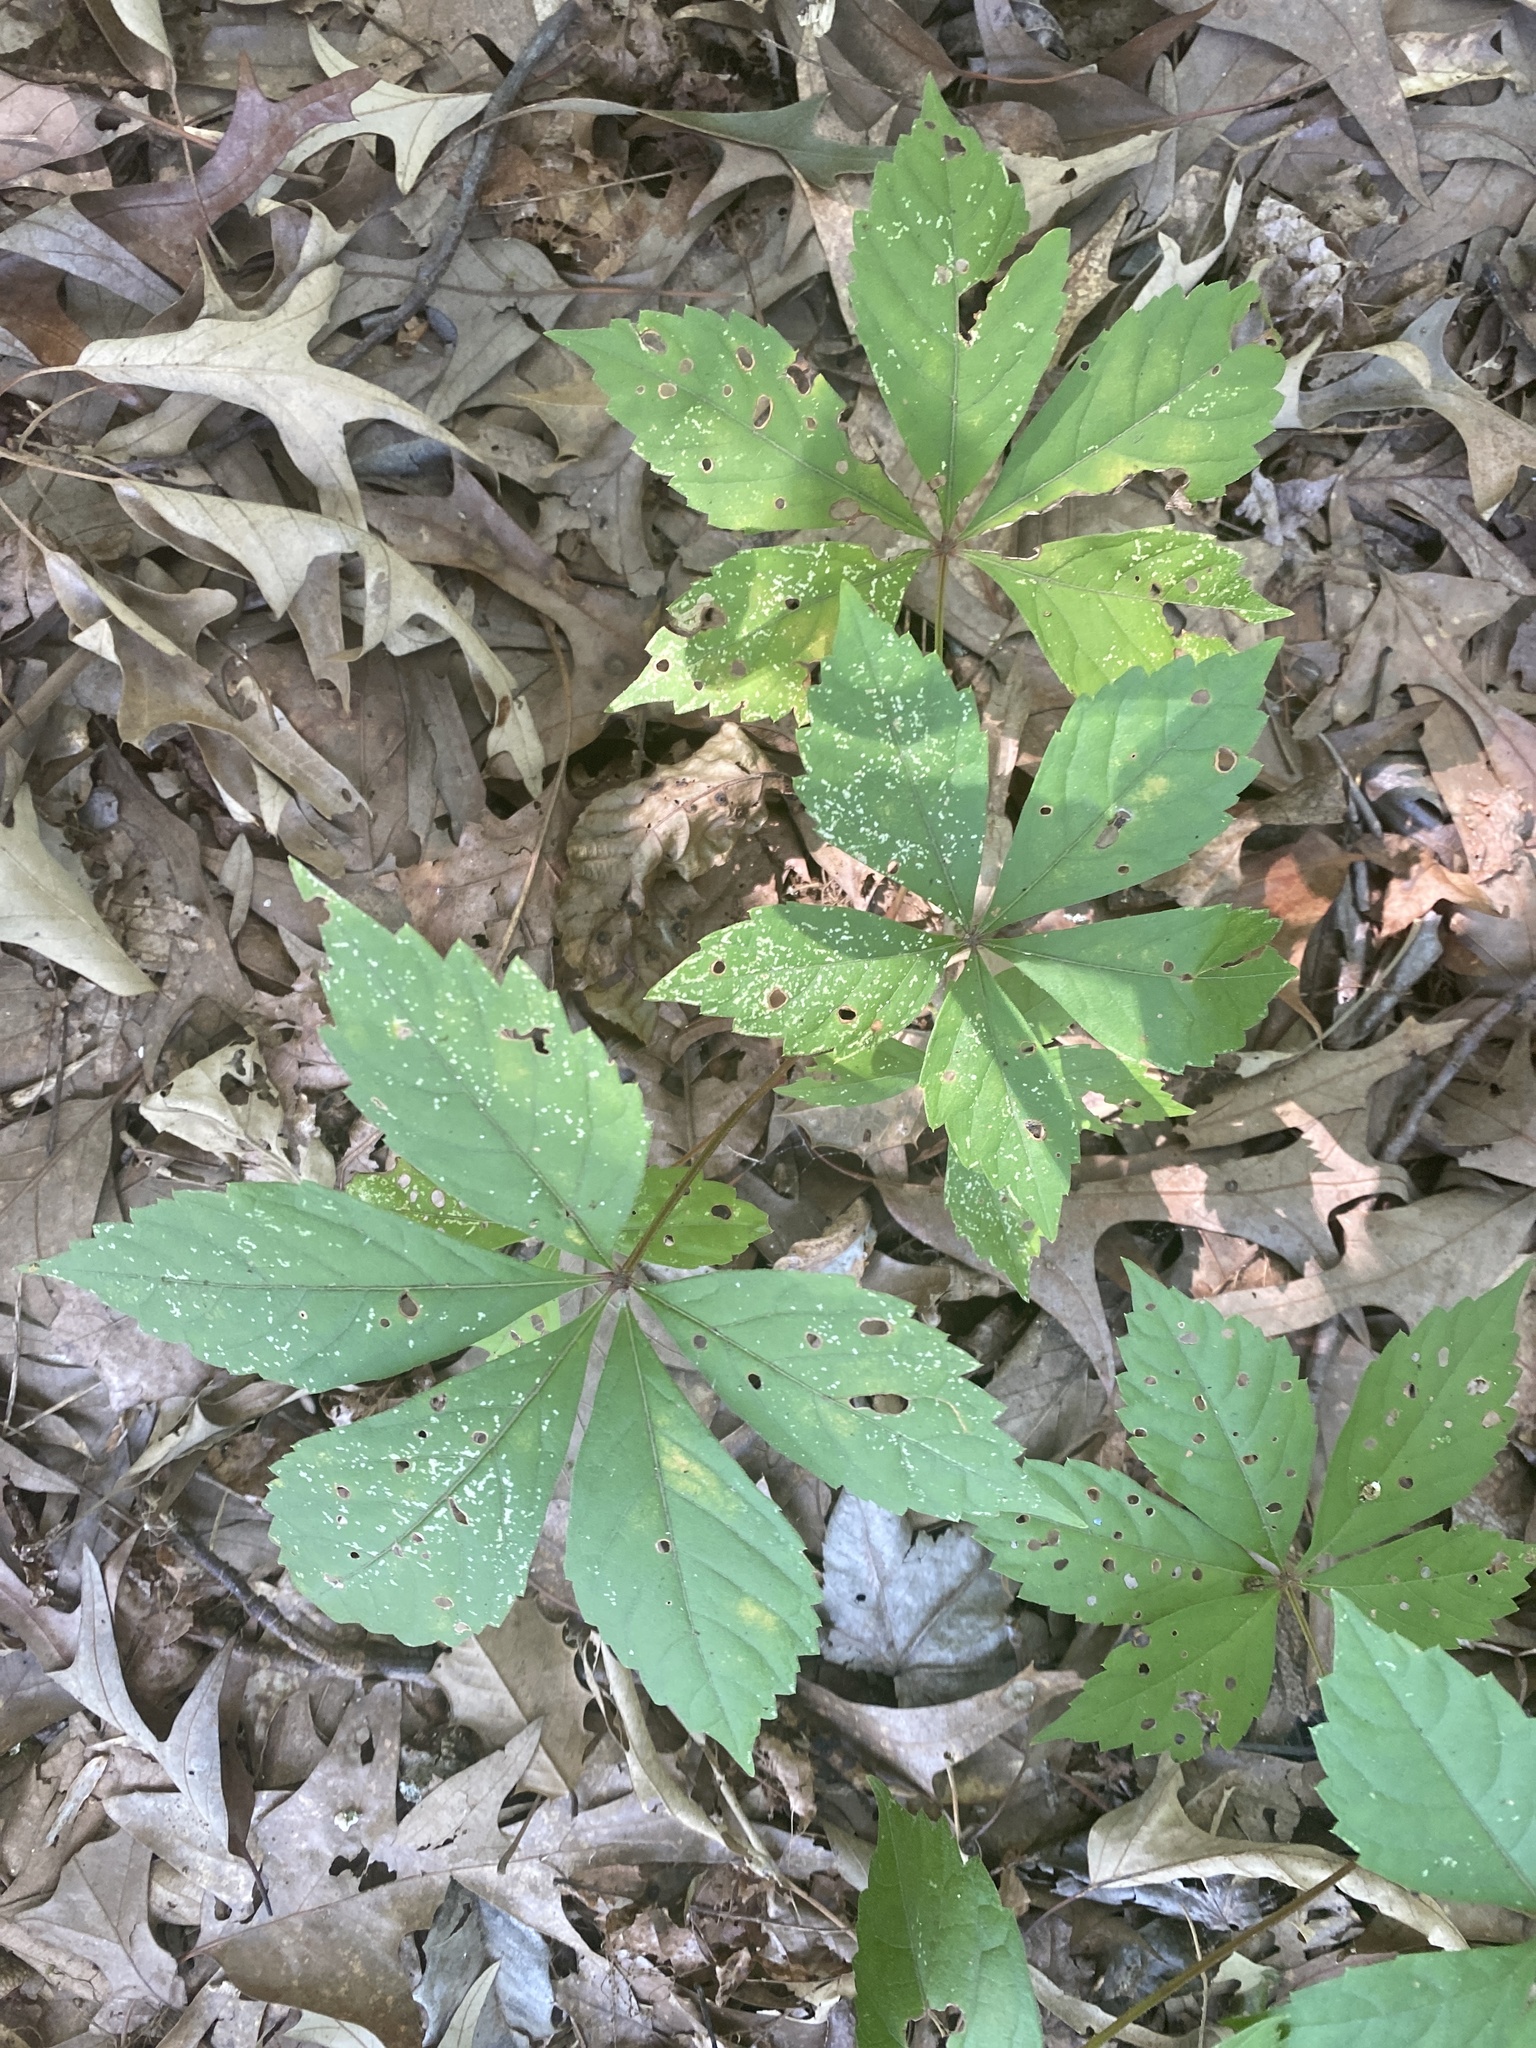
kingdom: Plantae
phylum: Tracheophyta
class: Magnoliopsida
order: Vitales
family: Vitaceae
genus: Parthenocissus
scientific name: Parthenocissus quinquefolia
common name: Virginia-creeper
